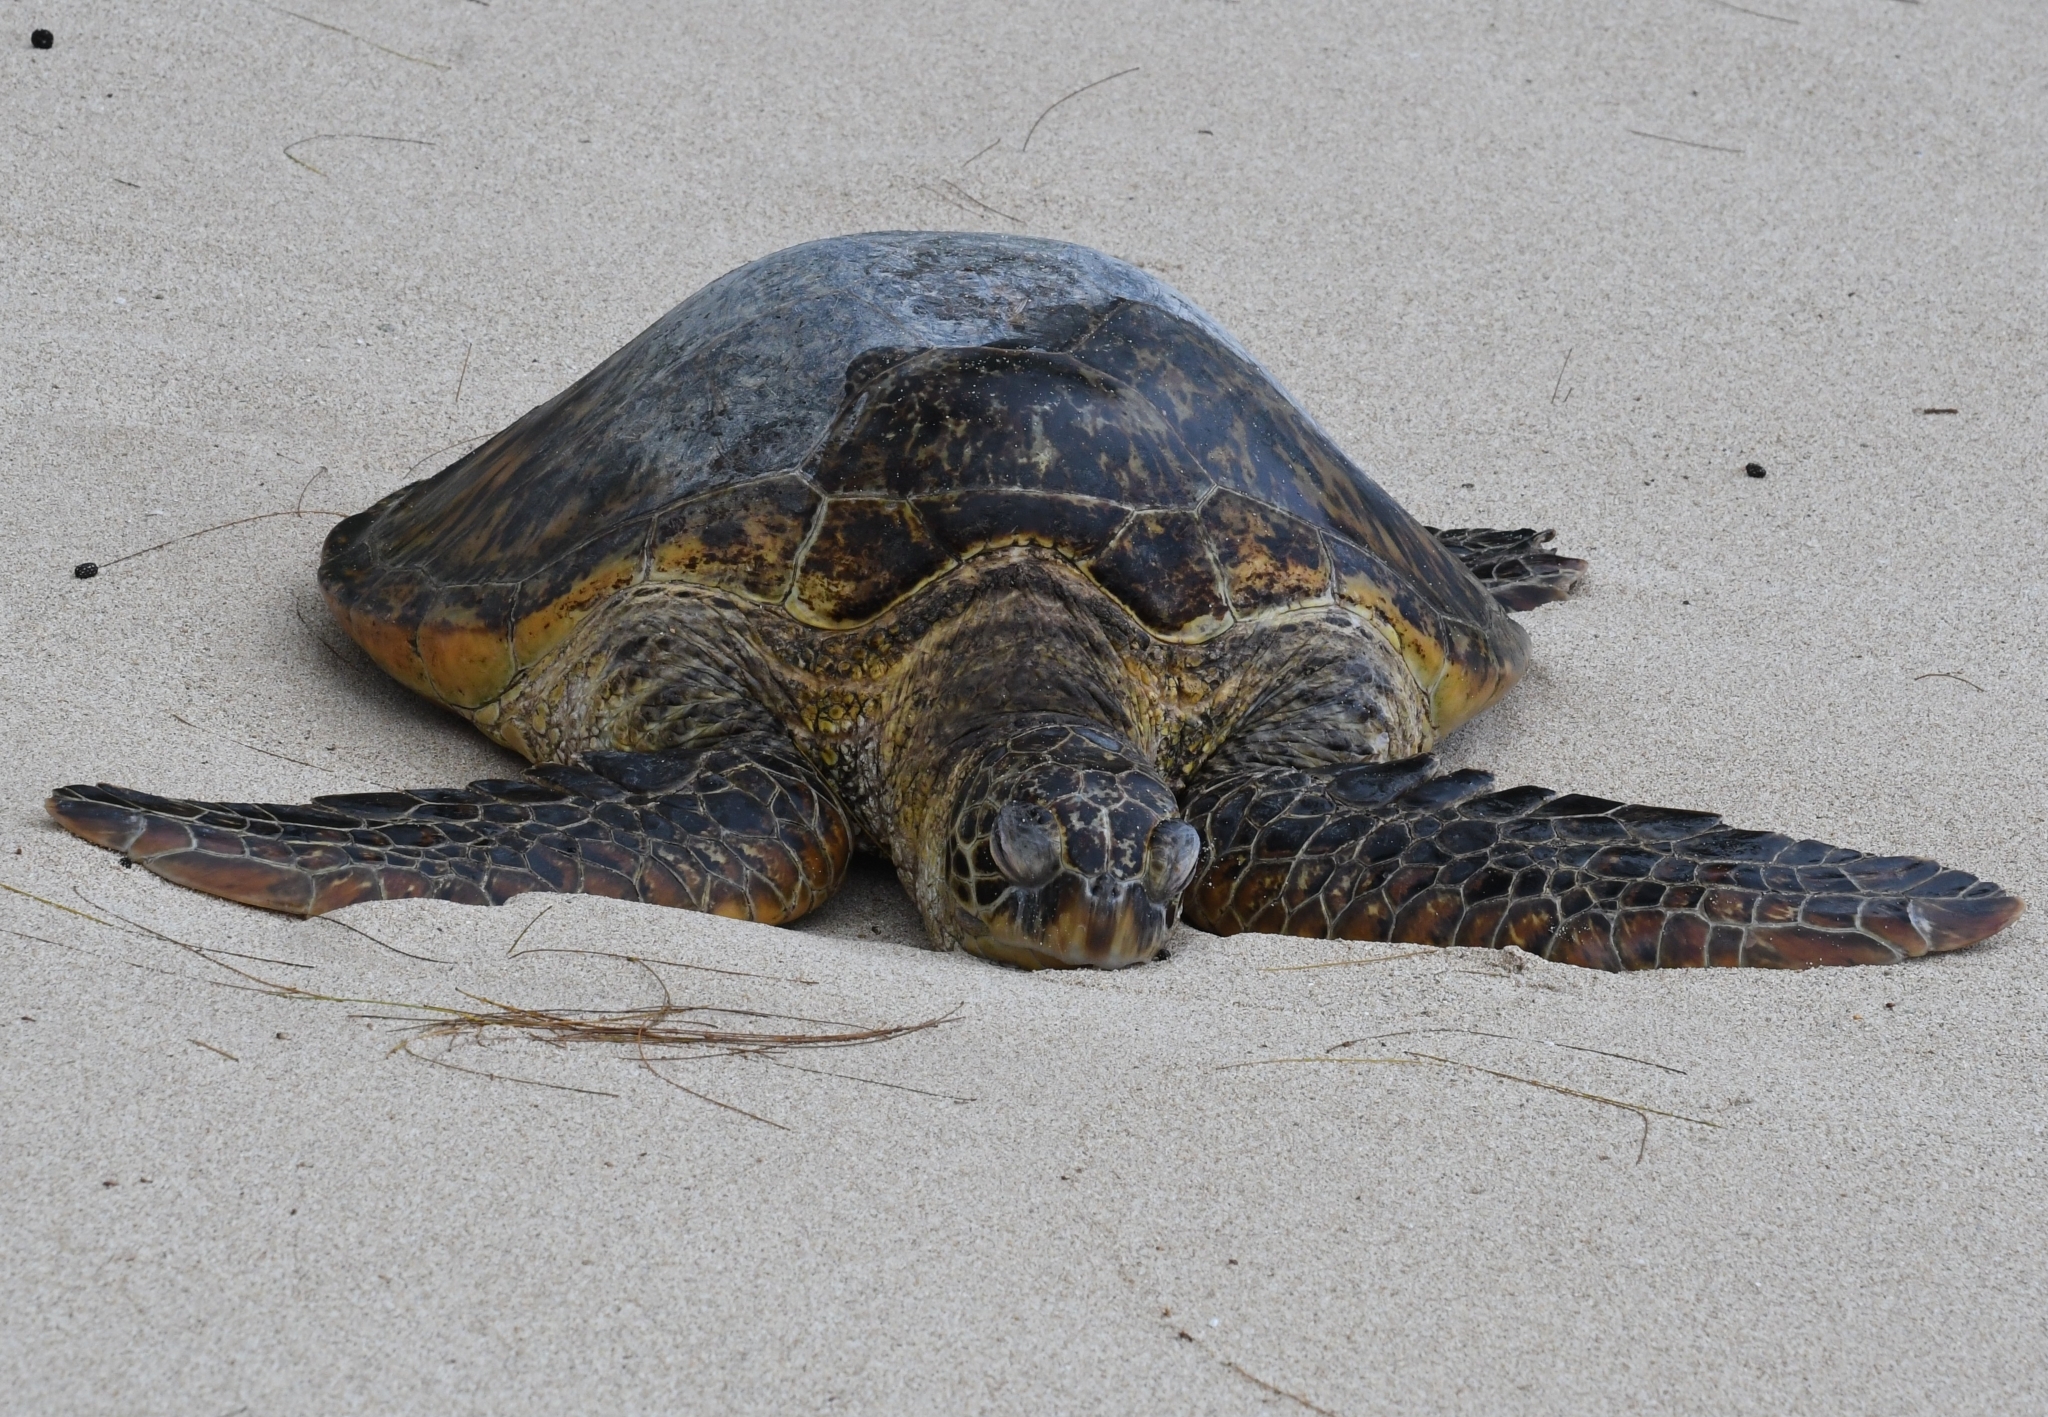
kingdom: Animalia
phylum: Chordata
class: Testudines
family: Cheloniidae
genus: Chelonia
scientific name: Chelonia mydas
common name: Green turtle
